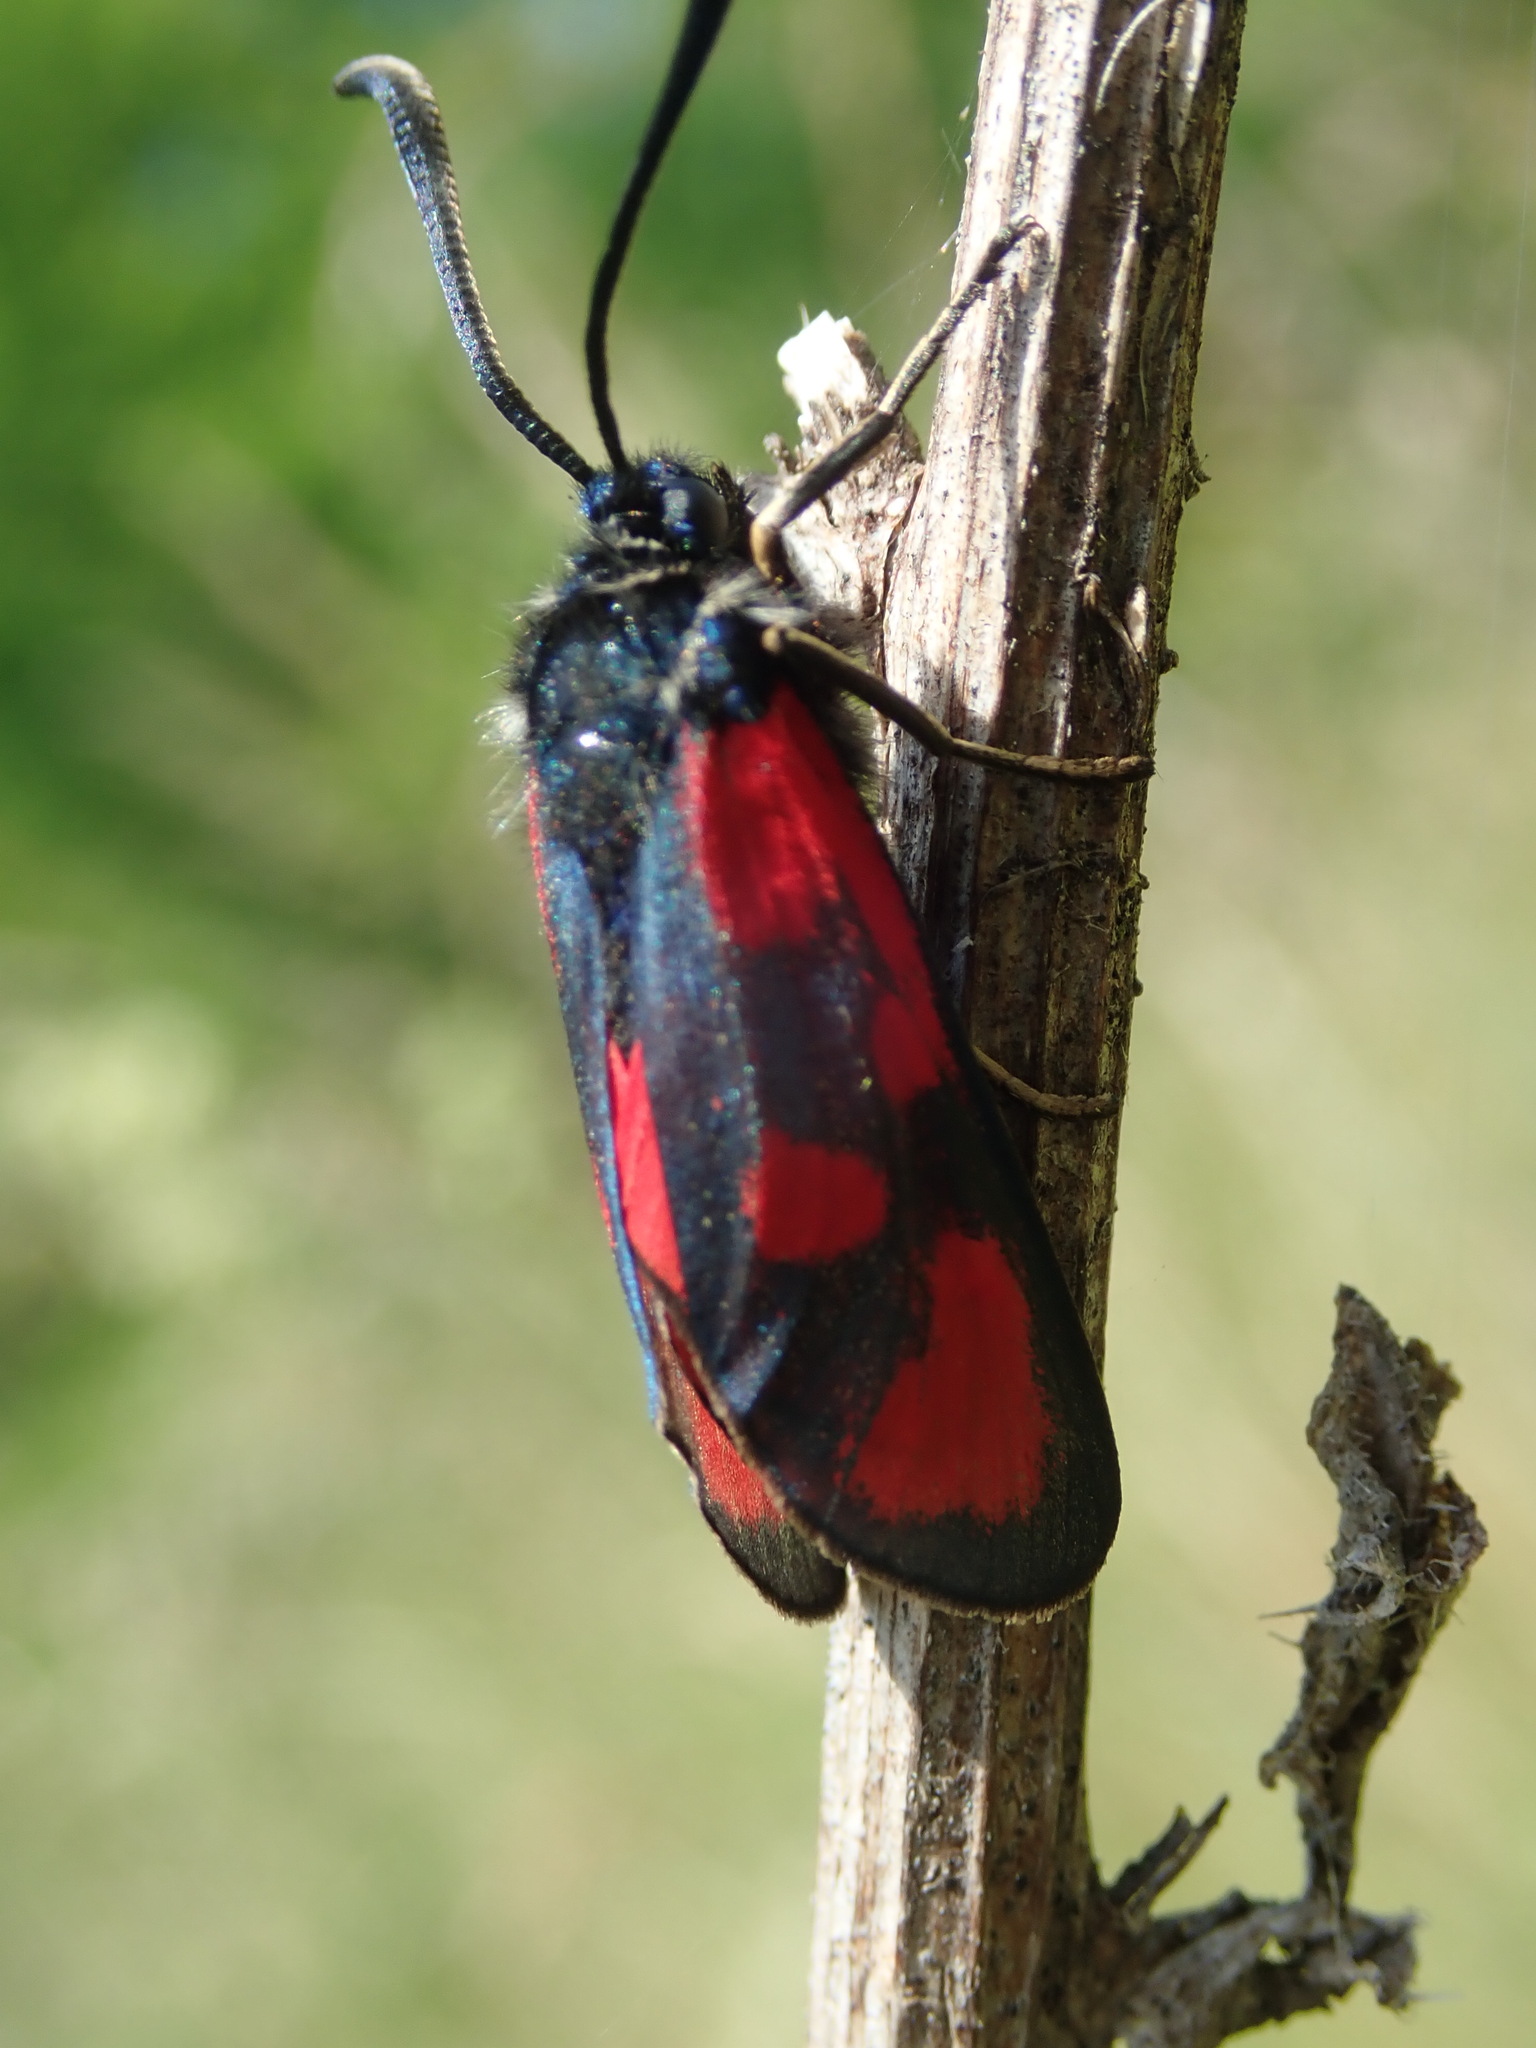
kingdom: Animalia
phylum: Arthropoda
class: Insecta
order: Lepidoptera
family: Zygaenidae
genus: Zygaena
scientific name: Zygaena loti
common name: Slender scotch burnet
